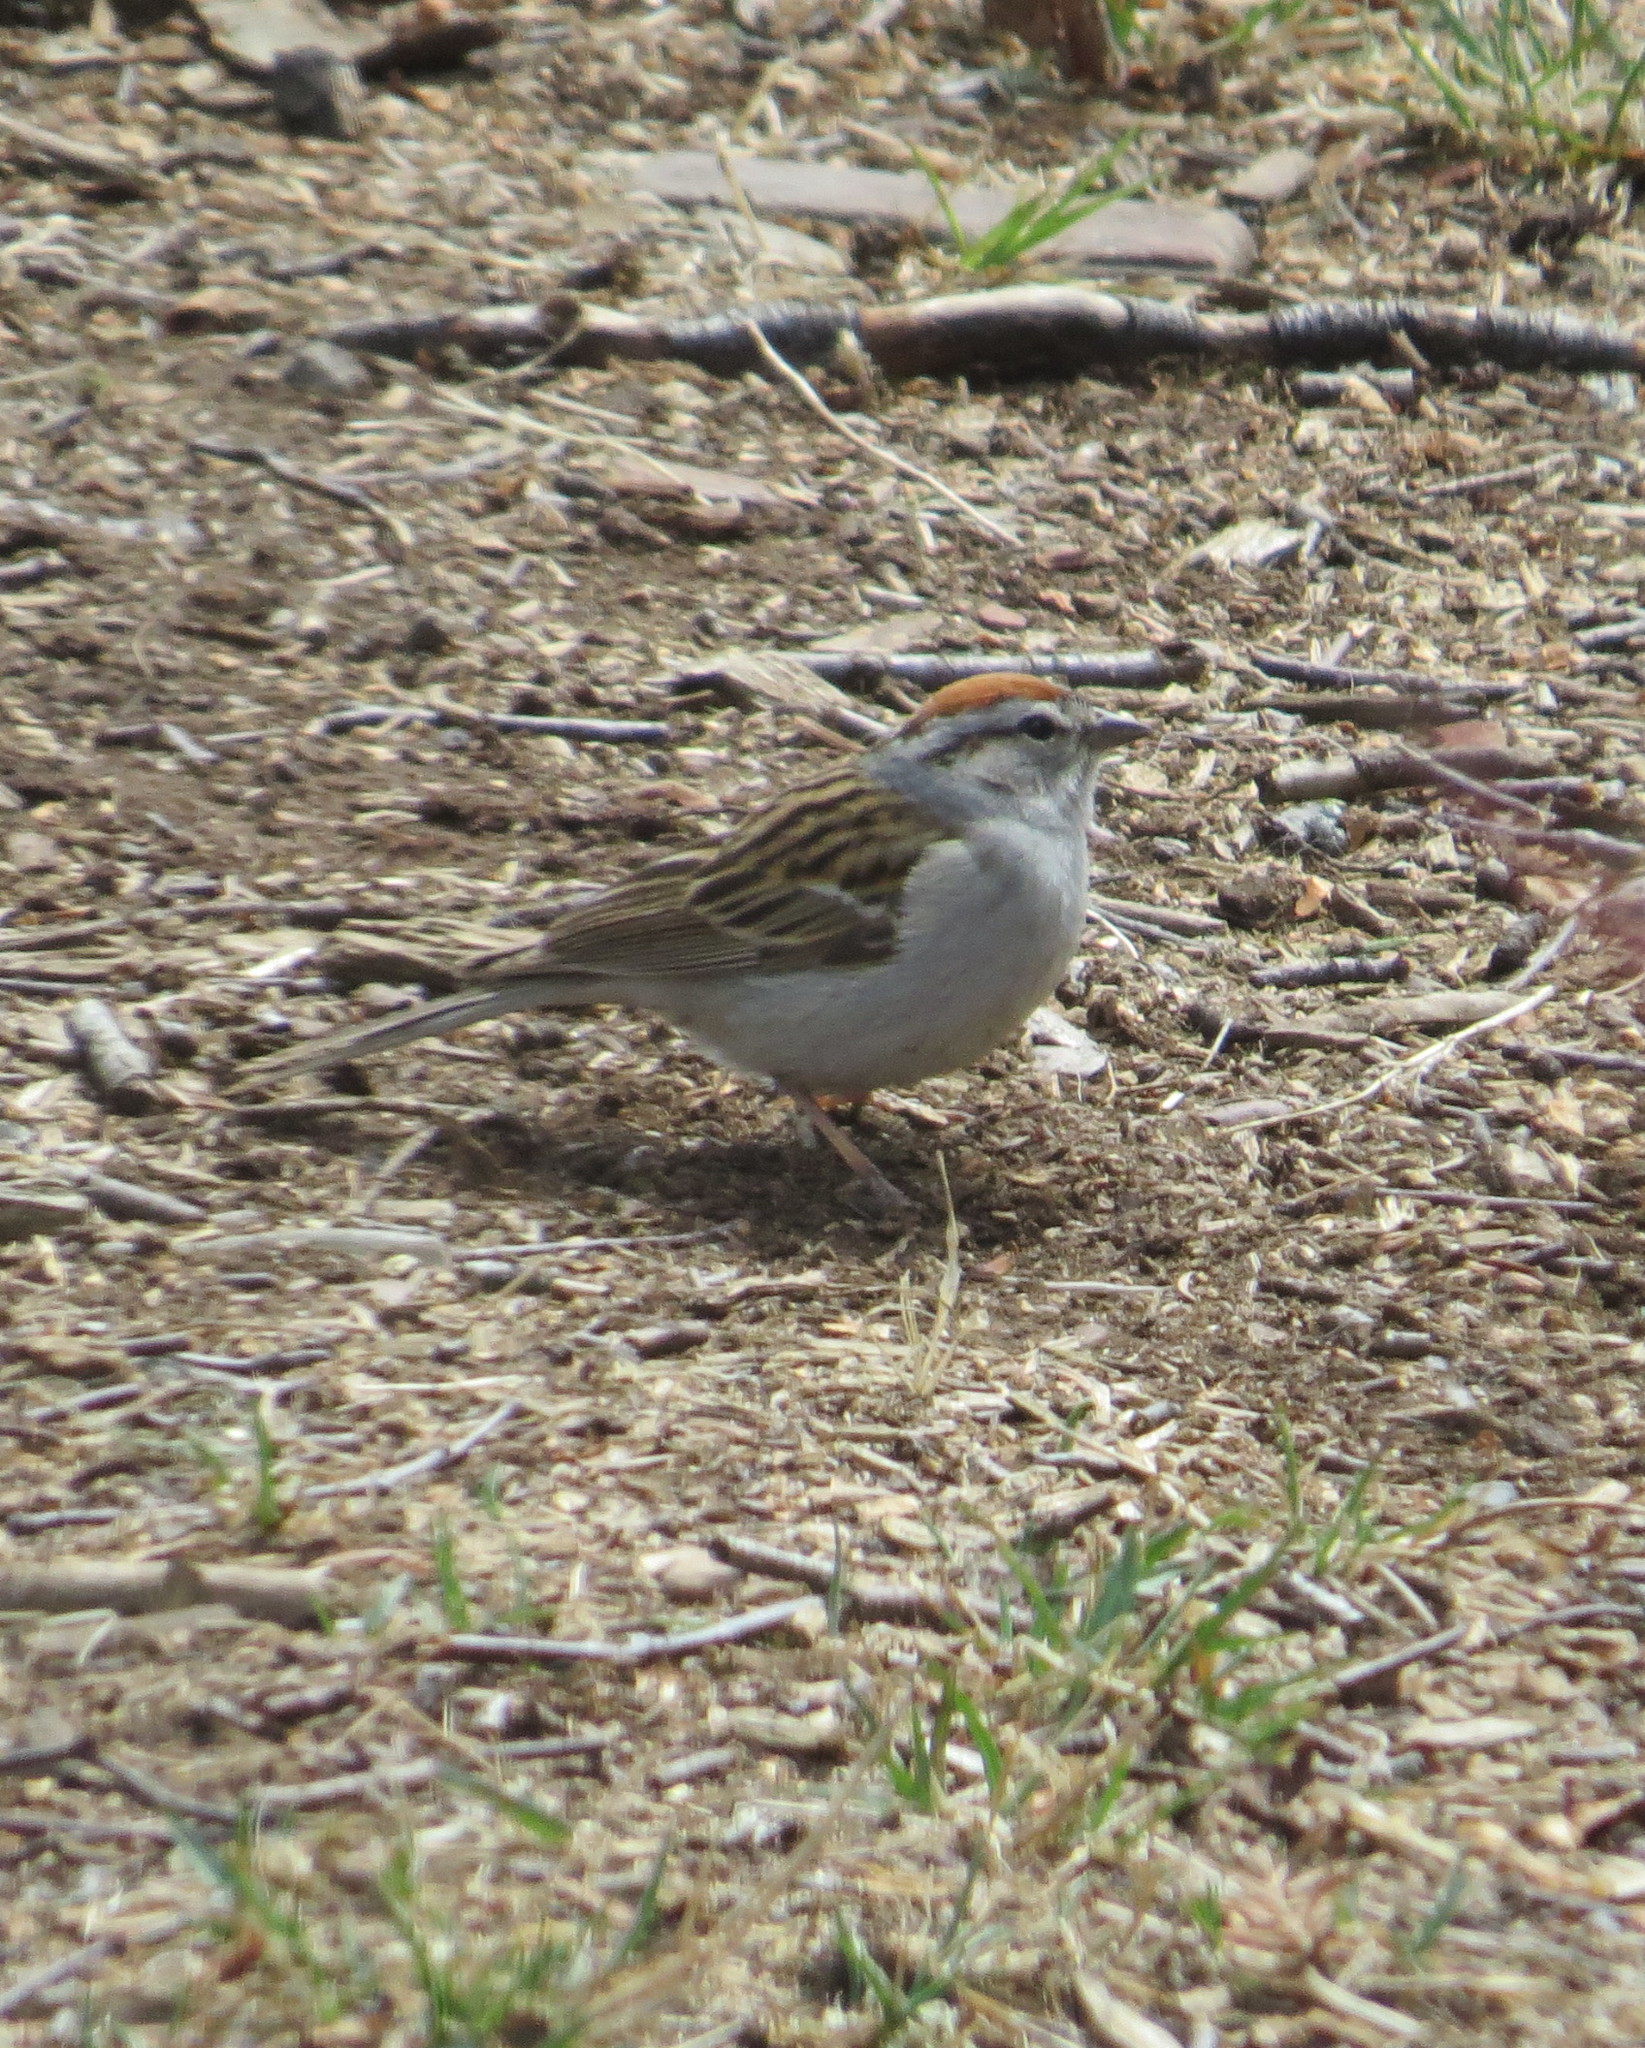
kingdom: Animalia
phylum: Chordata
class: Aves
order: Passeriformes
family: Passerellidae
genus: Spizella
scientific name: Spizella passerina
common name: Chipping sparrow
